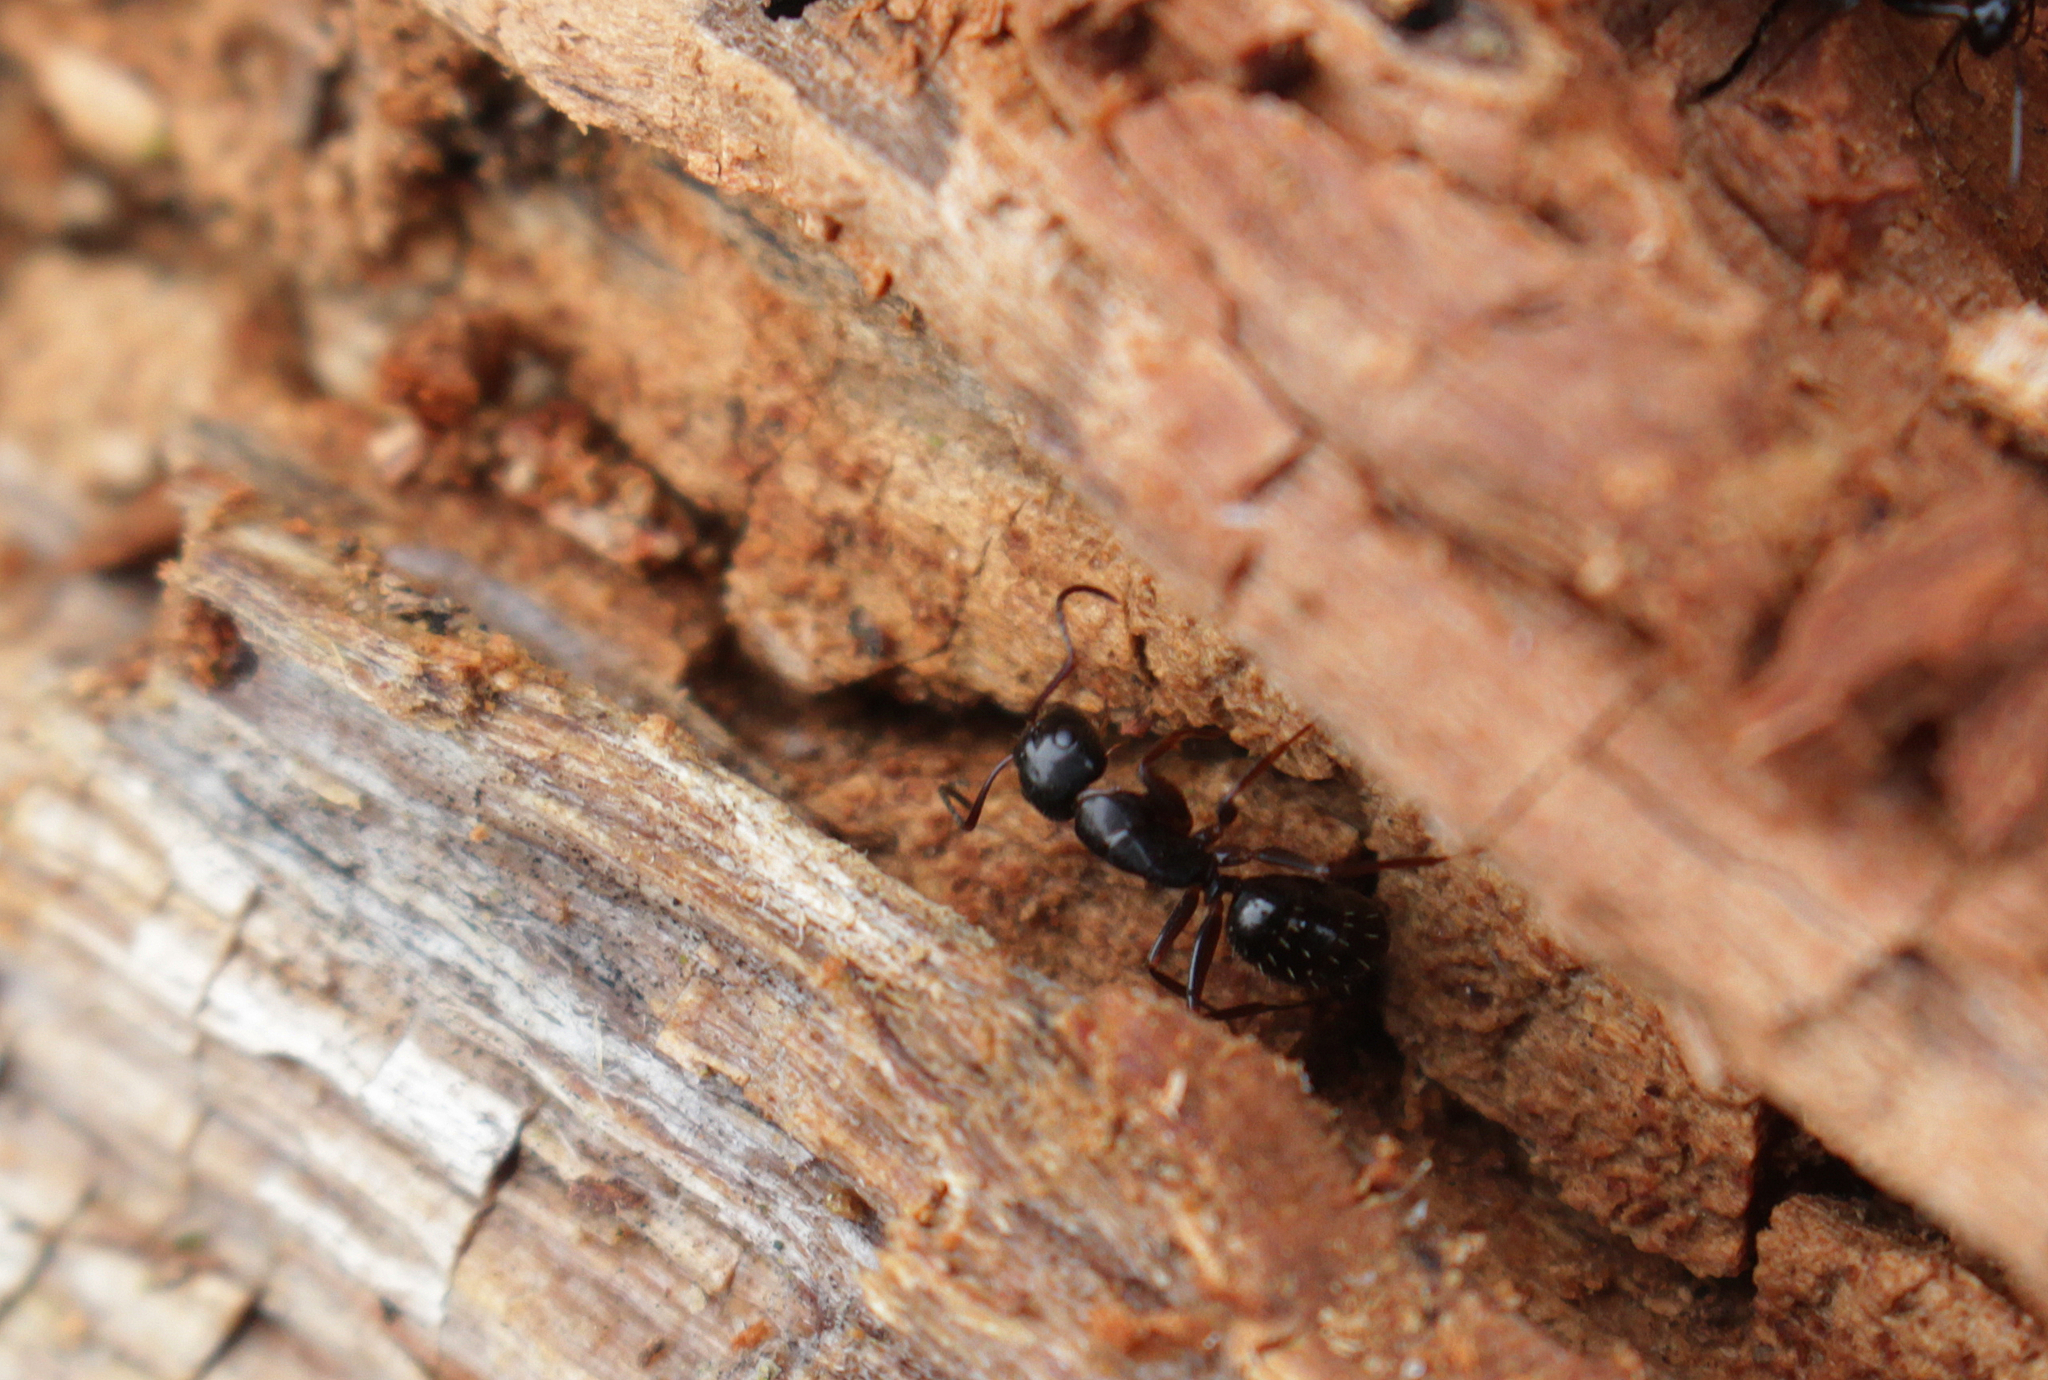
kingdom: Animalia
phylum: Arthropoda
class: Insecta
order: Hymenoptera
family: Formicidae
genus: Camponotus
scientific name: Camponotus fallax
